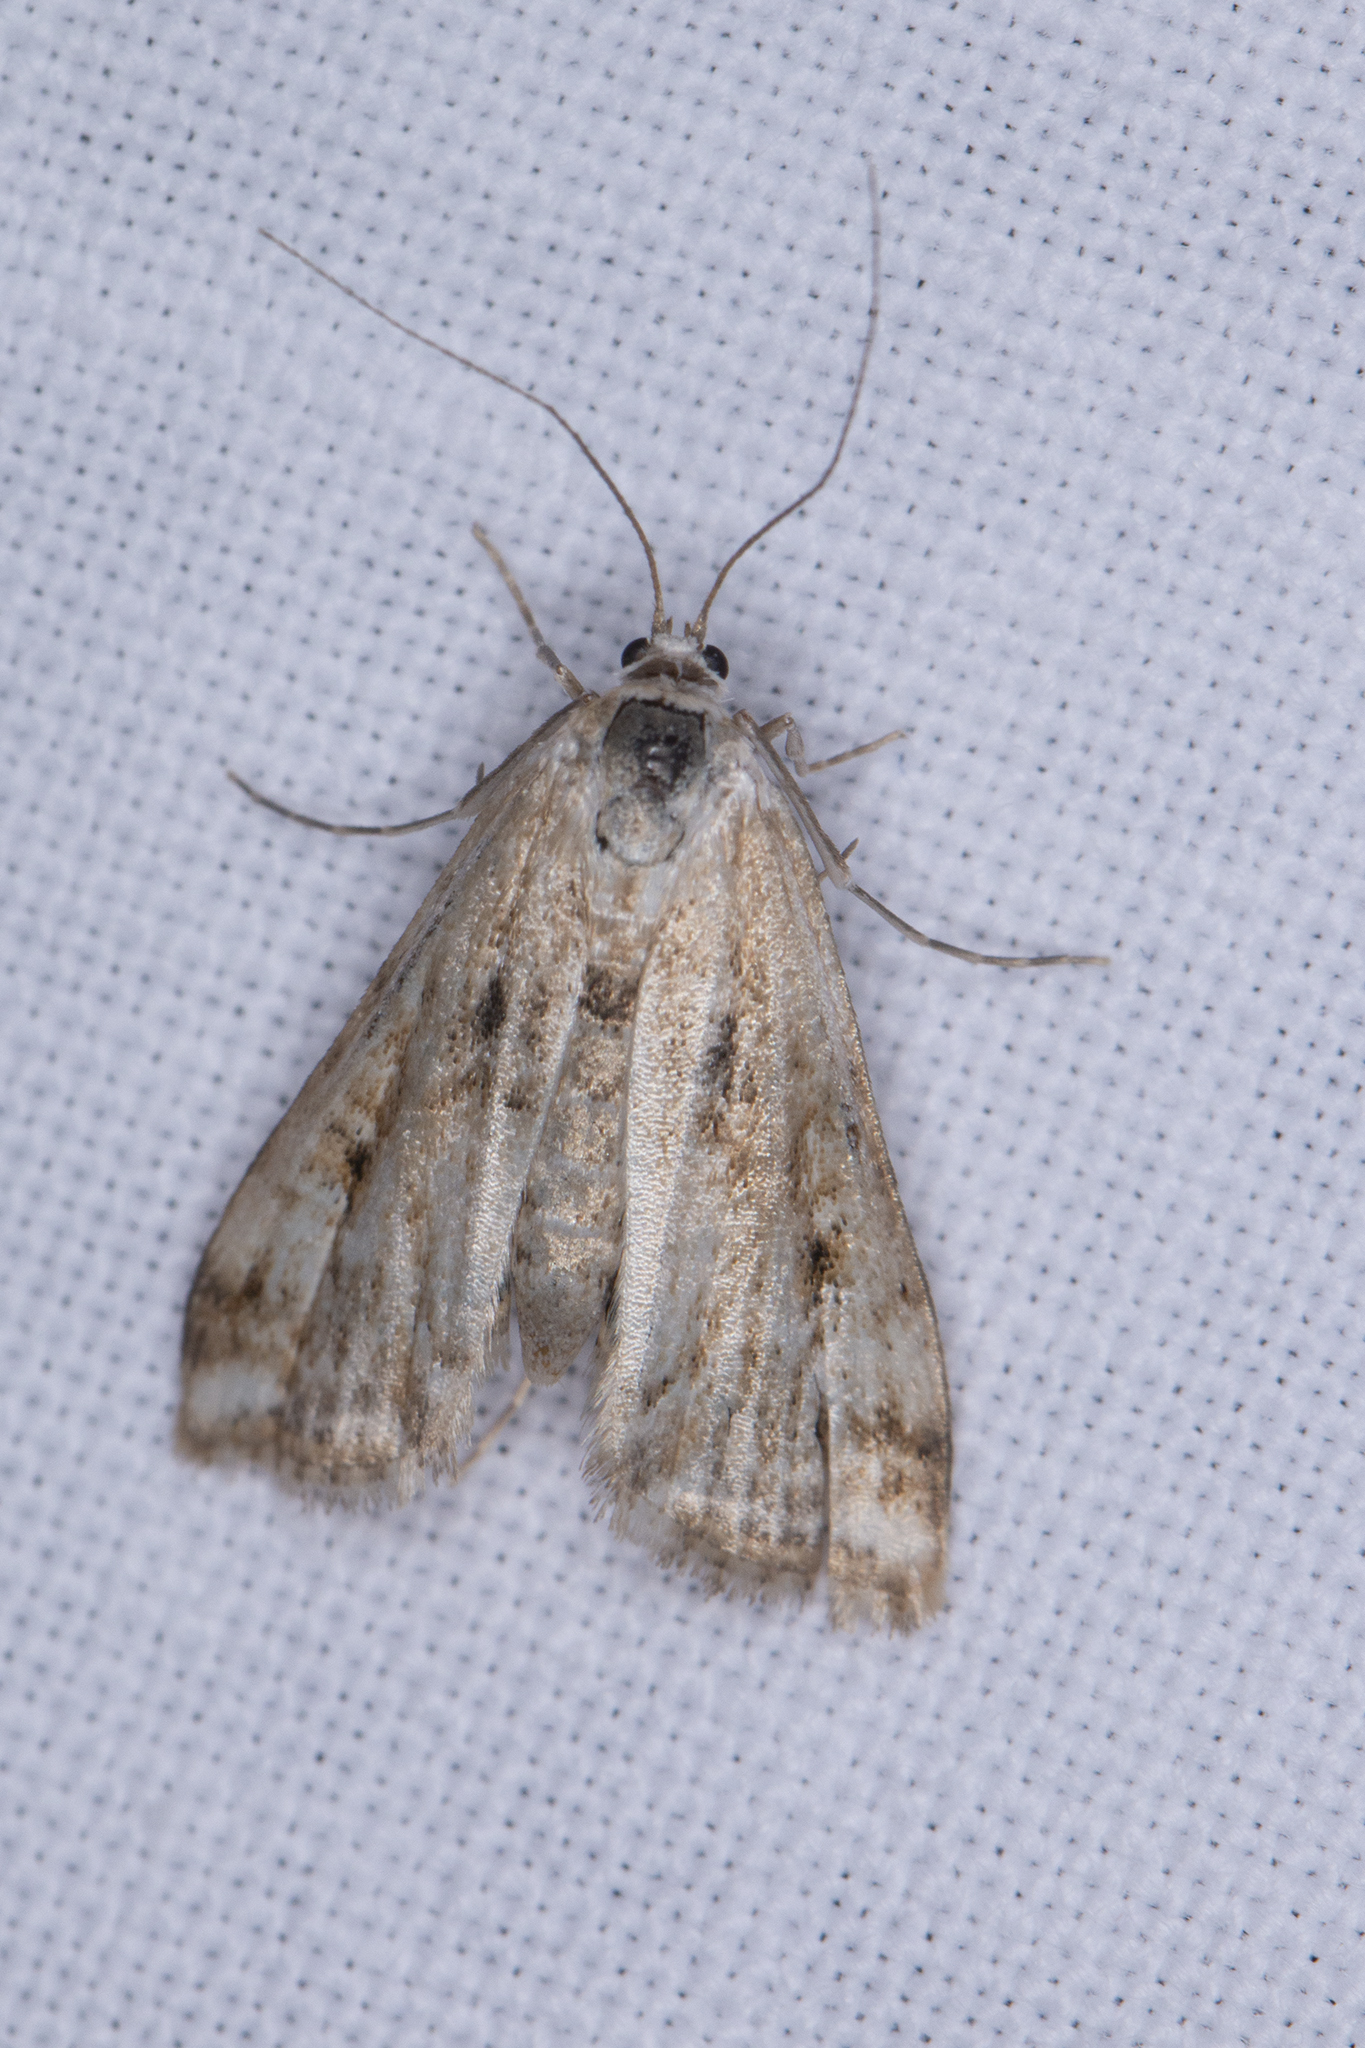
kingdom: Animalia
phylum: Arthropoda
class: Insecta
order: Lepidoptera
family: Crambidae
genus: Cataclysta
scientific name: Cataclysta lemnata
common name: Small china-mark
